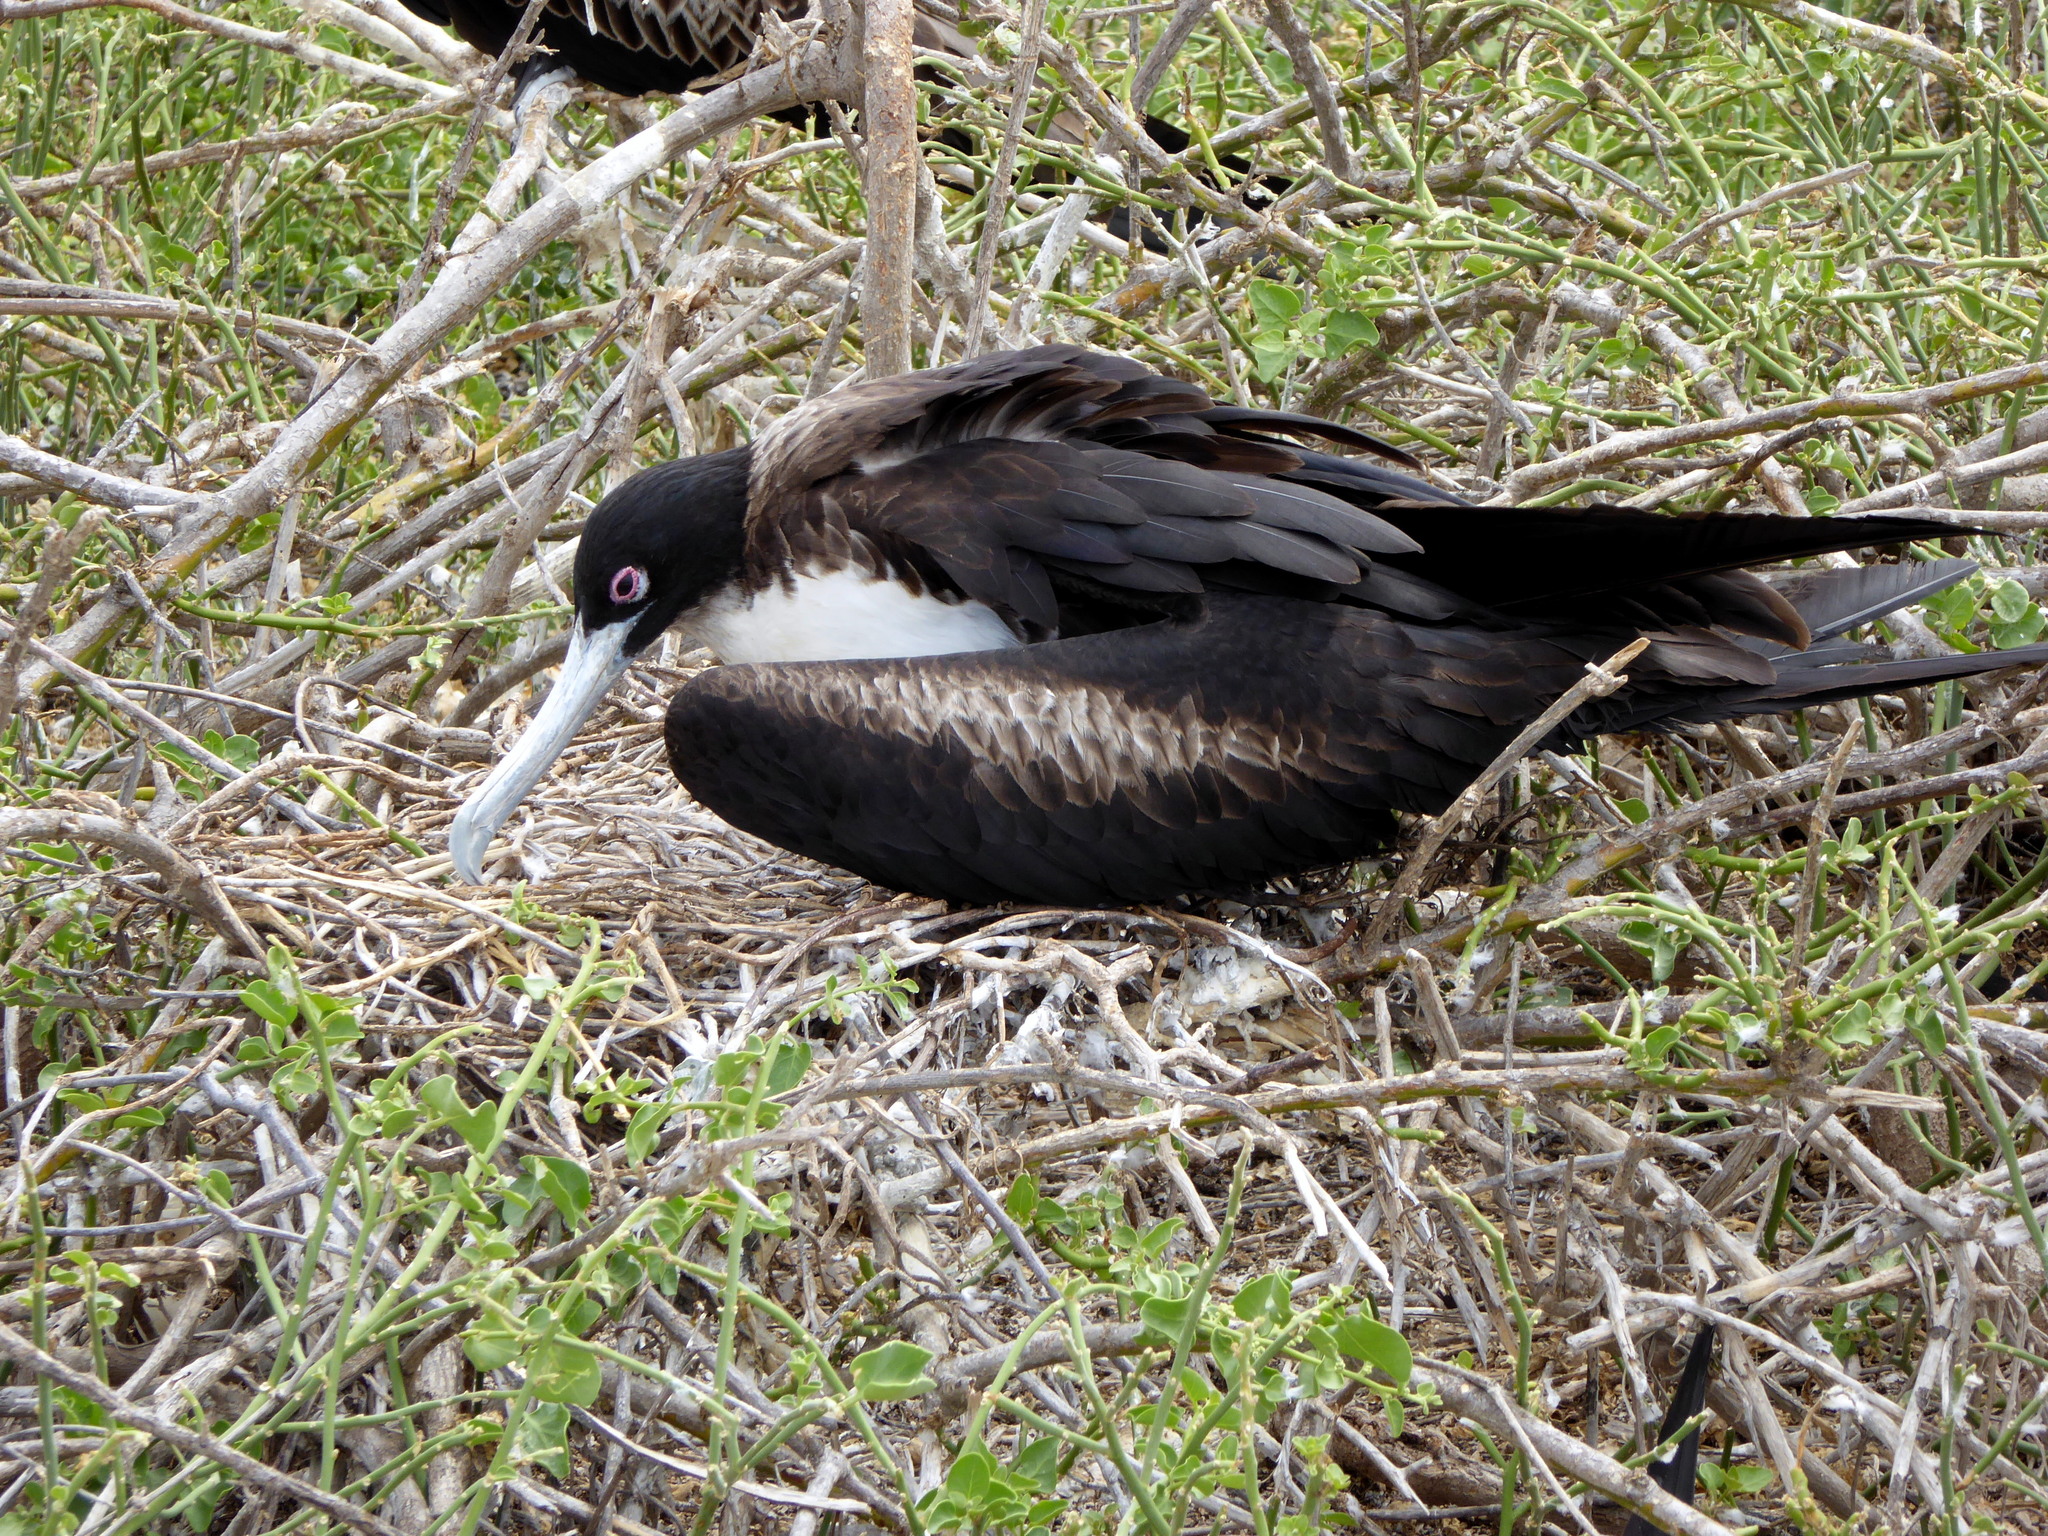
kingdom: Animalia
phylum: Chordata
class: Aves
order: Suliformes
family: Fregatidae
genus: Fregata
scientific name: Fregata minor
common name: Great frigatebird
